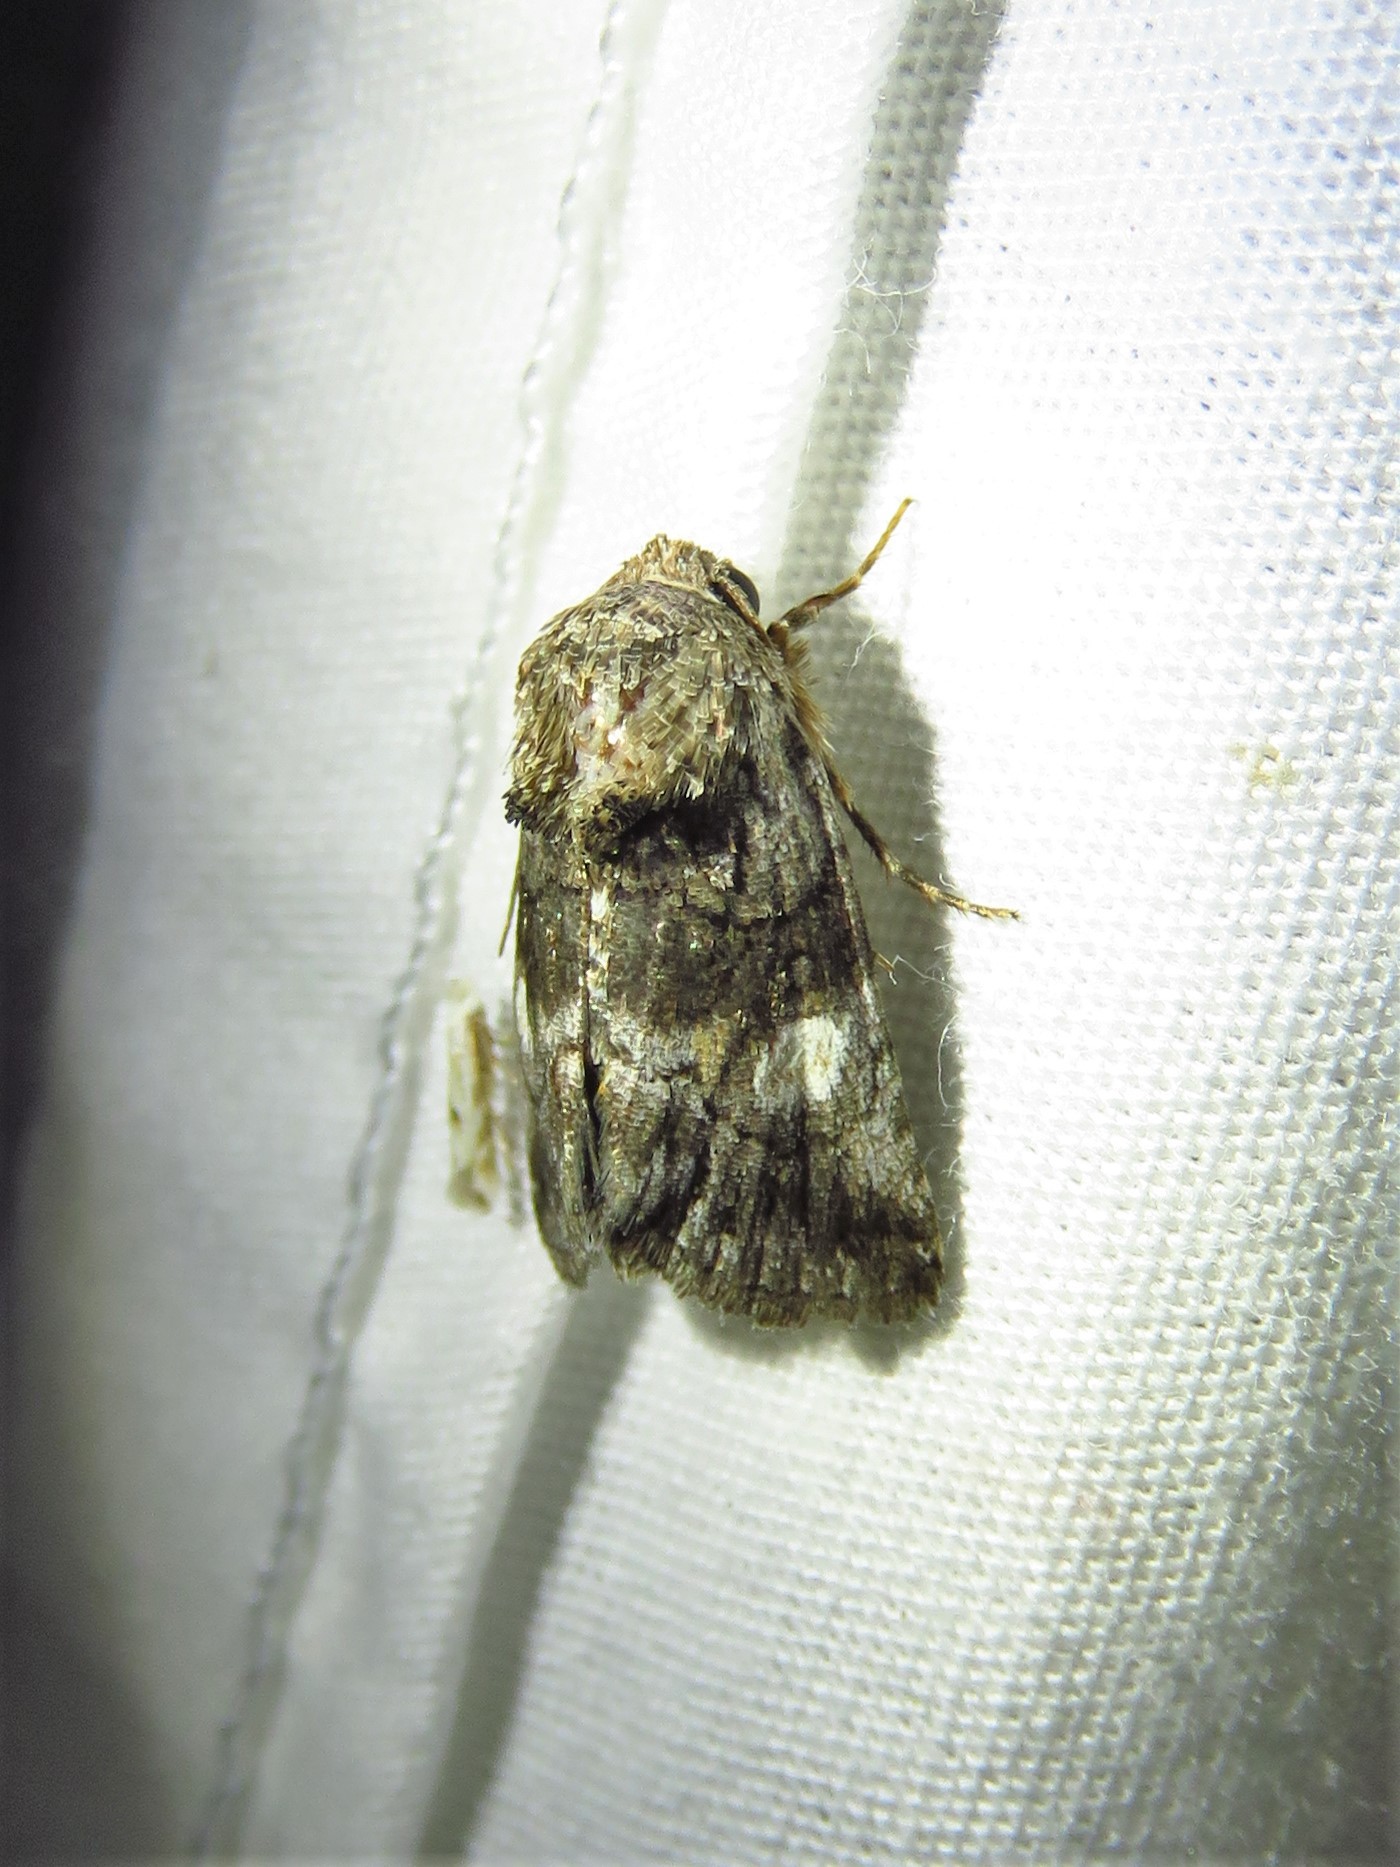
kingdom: Animalia
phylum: Arthropoda
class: Insecta
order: Lepidoptera
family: Noctuidae
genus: Copanarta
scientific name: Copanarta aurea
